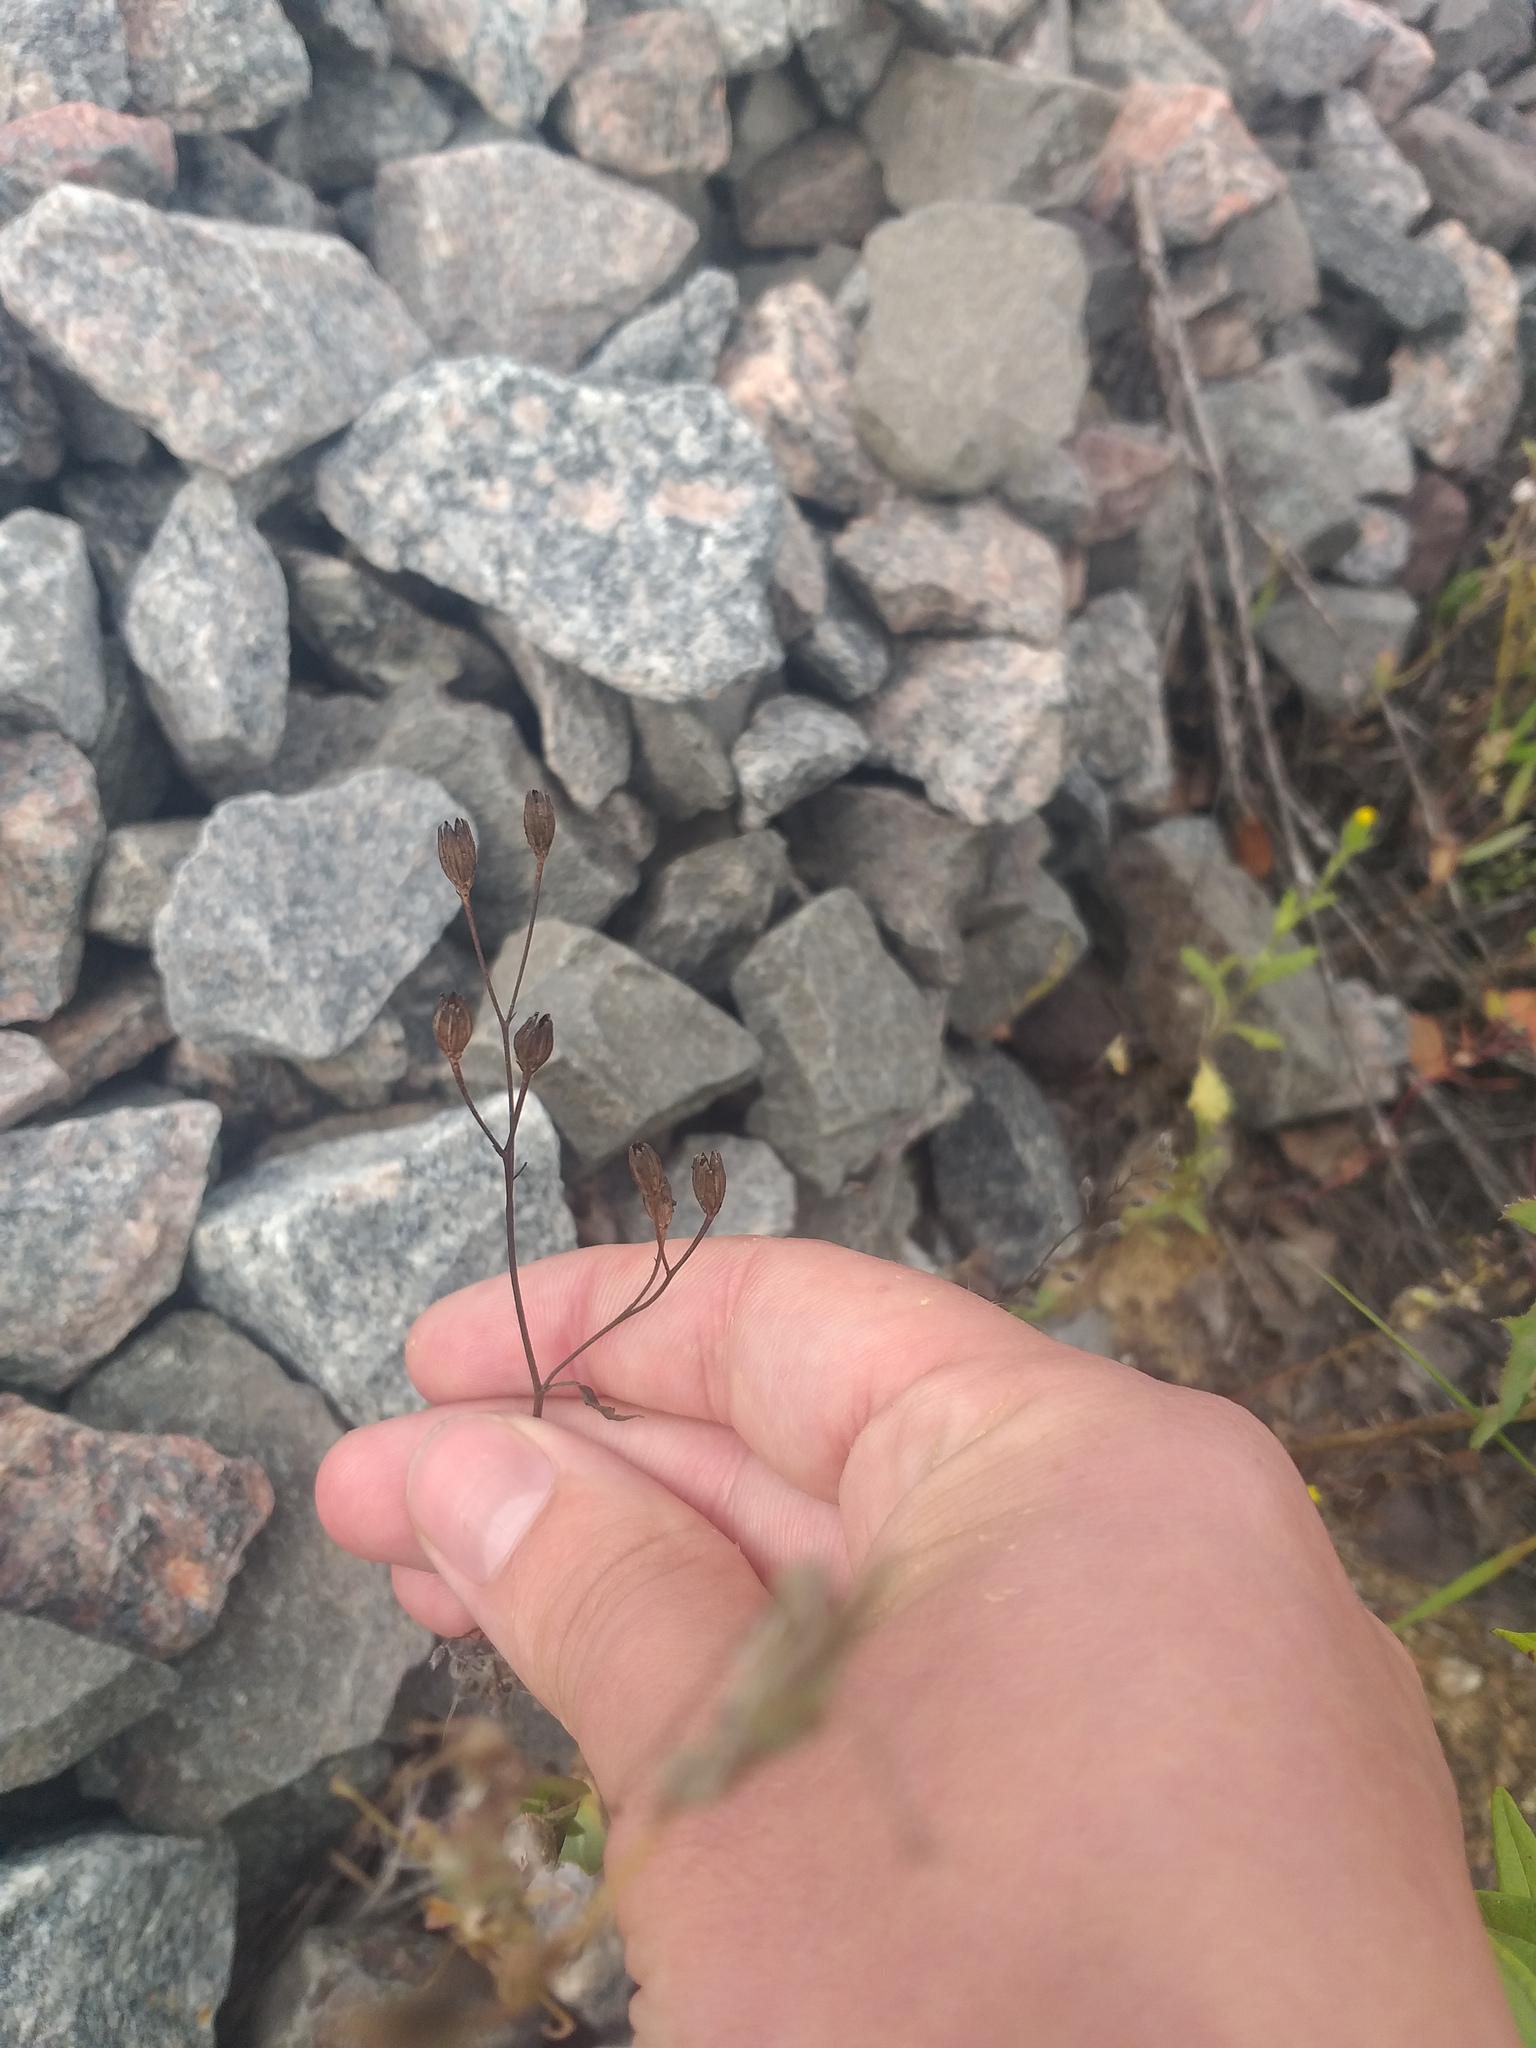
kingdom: Plantae
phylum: Tracheophyta
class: Magnoliopsida
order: Asterales
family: Asteraceae
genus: Lapsana
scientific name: Lapsana communis
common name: Nipplewort
